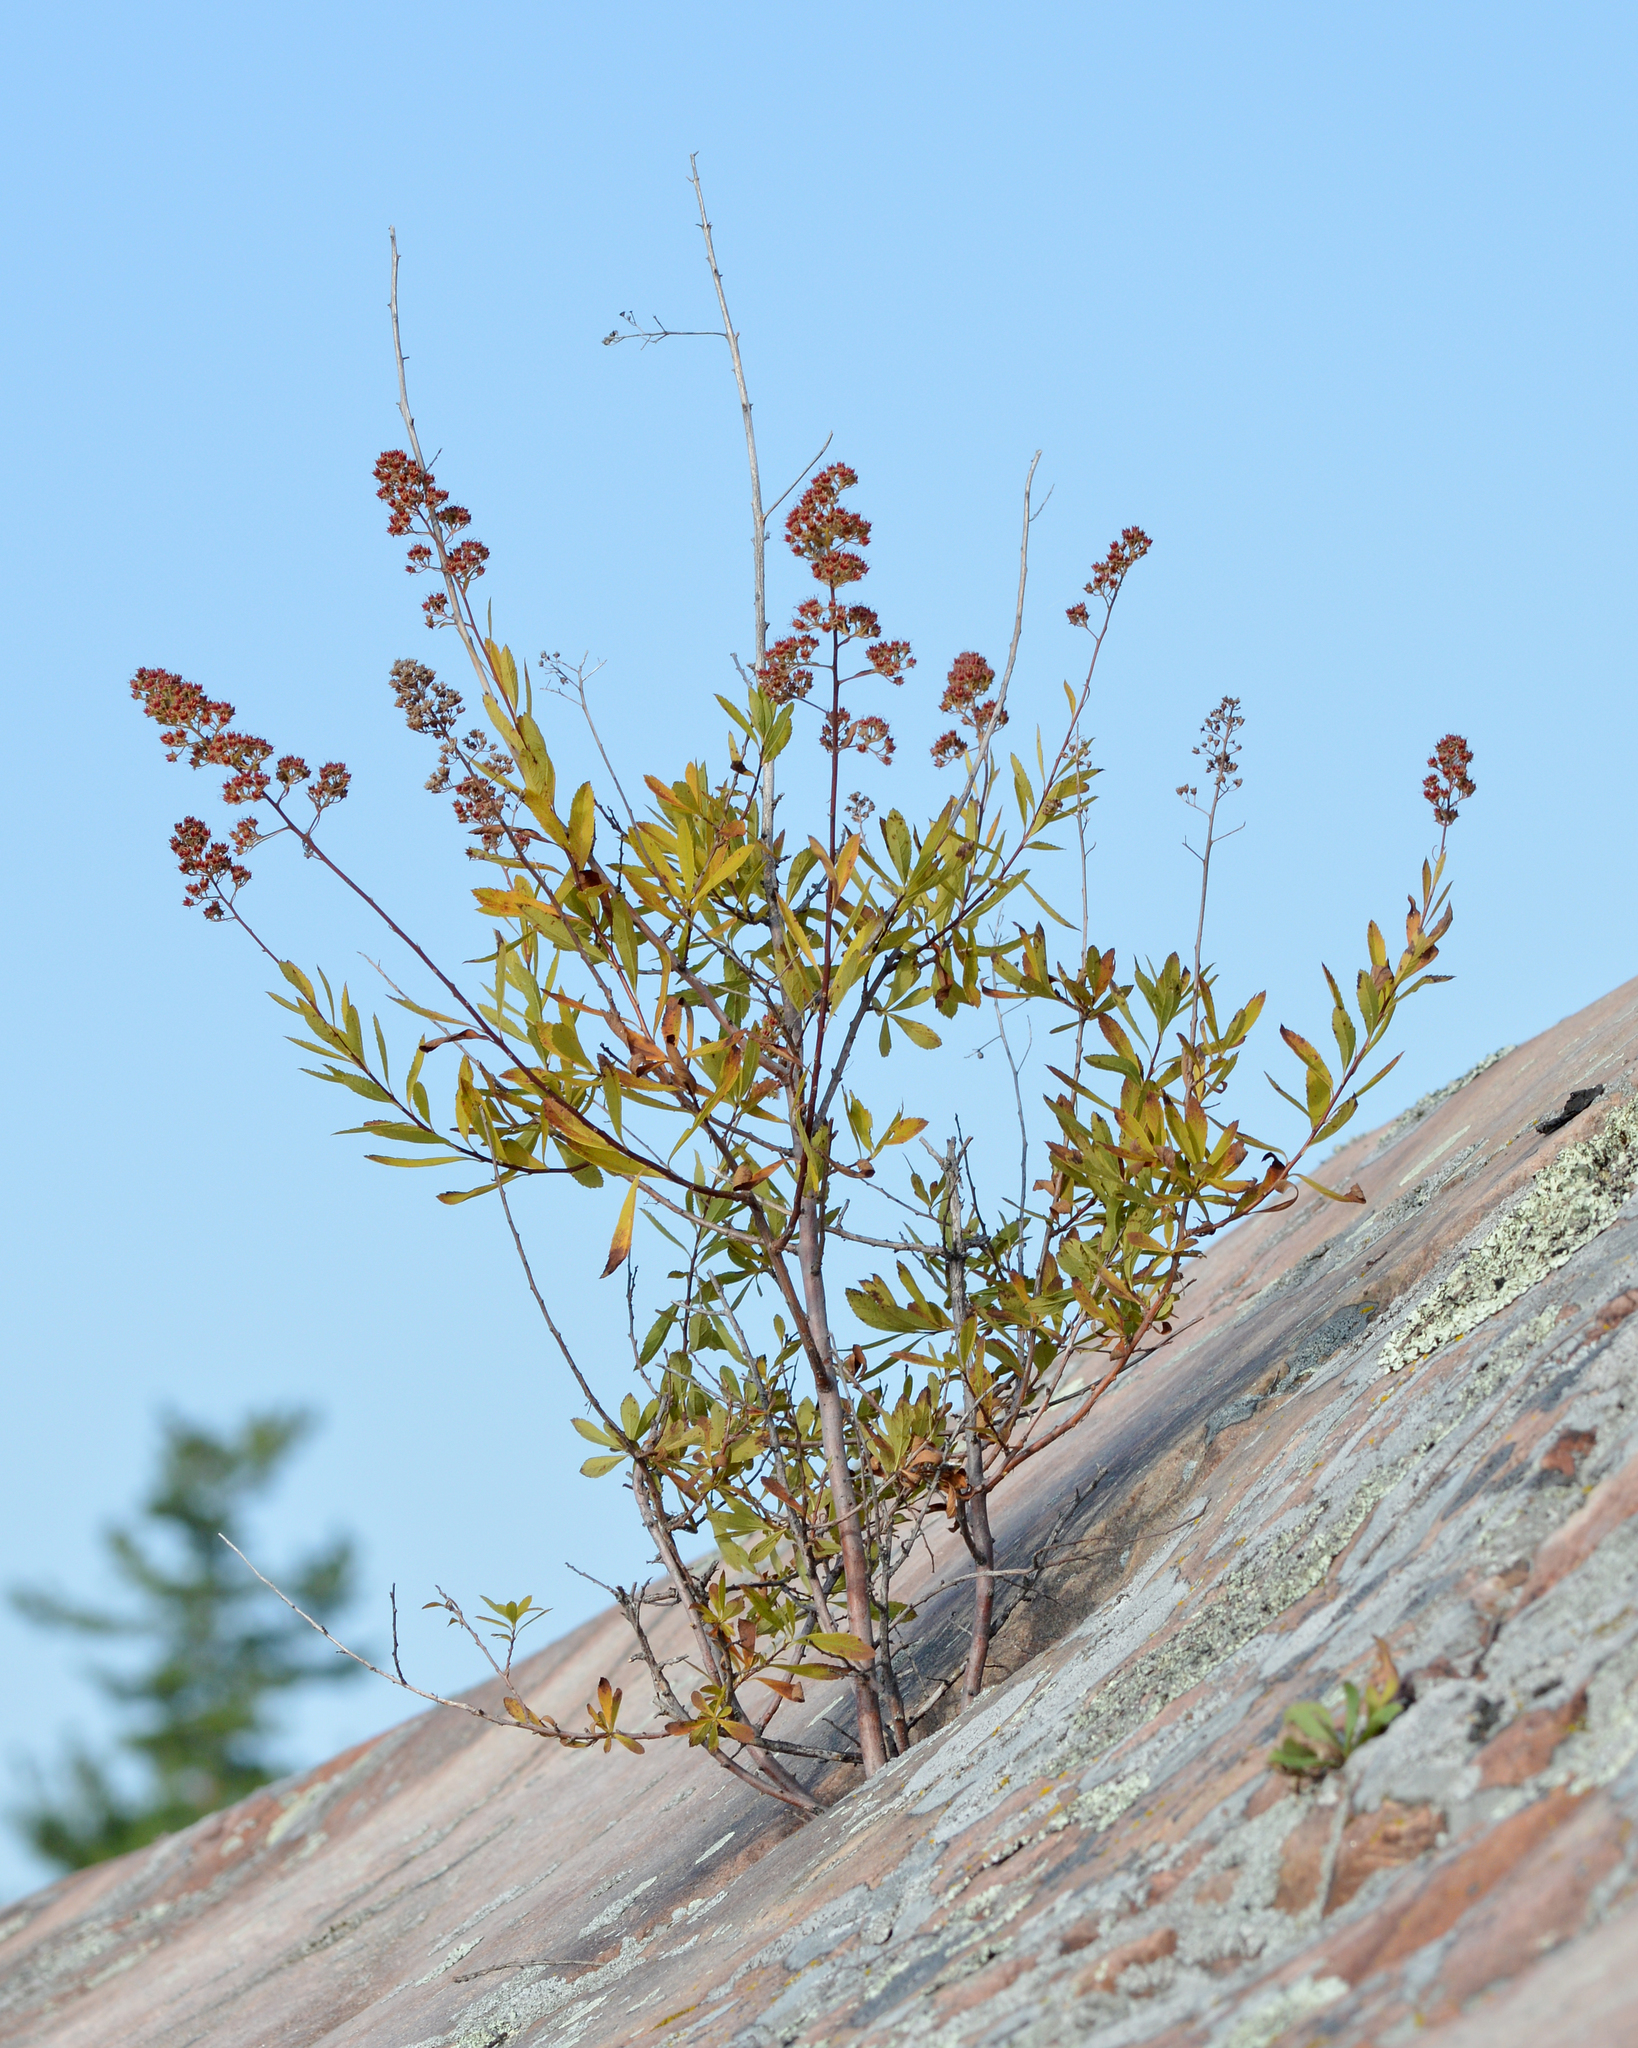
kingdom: Plantae
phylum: Tracheophyta
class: Magnoliopsida
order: Rosales
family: Rosaceae
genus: Spiraea
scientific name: Spiraea alba
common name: Pale bridewort
